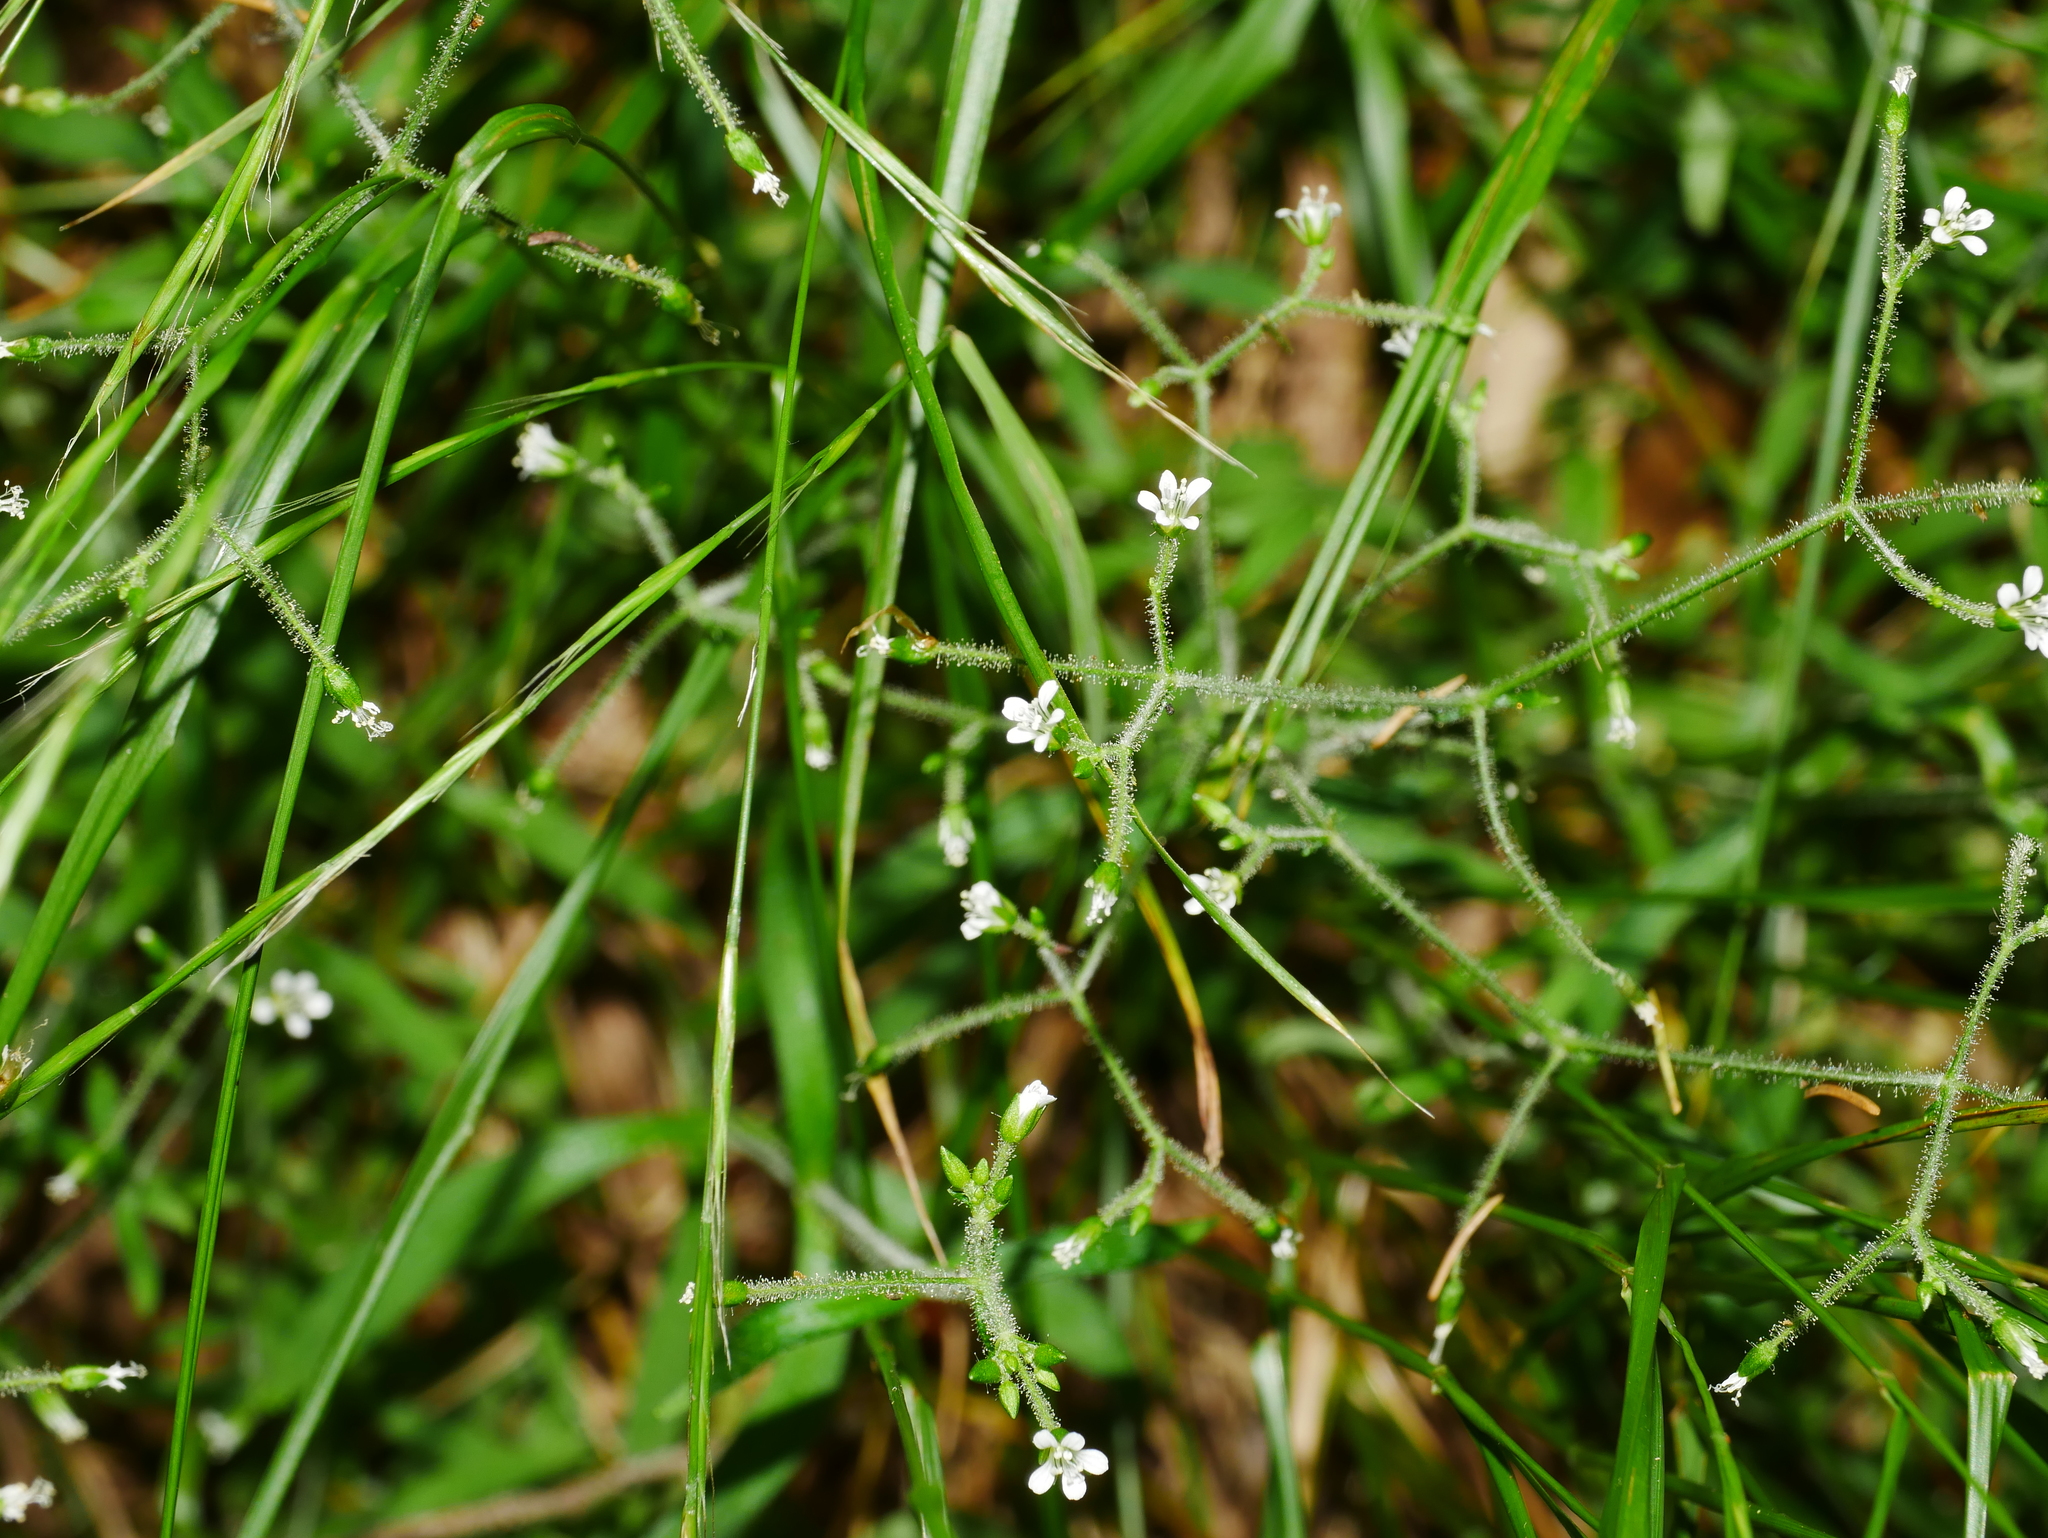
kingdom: Plantae
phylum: Tracheophyta
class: Magnoliopsida
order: Caryophyllales
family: Caryophyllaceae
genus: Cerastium
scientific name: Cerastium subpilosum
